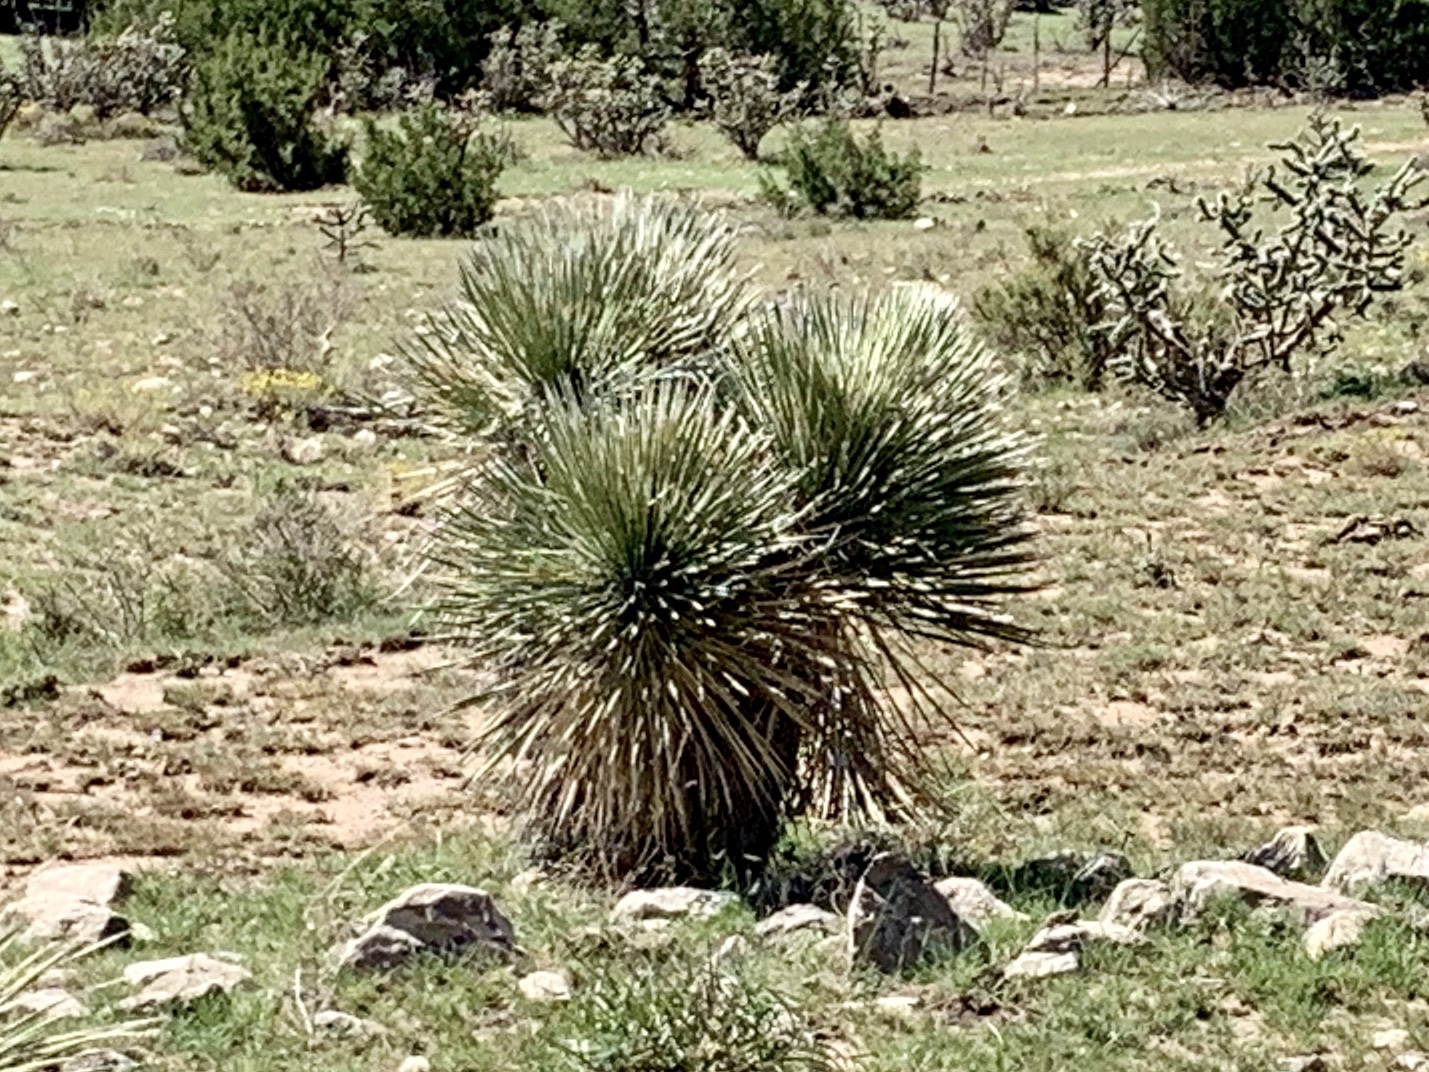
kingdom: Plantae
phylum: Tracheophyta
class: Liliopsida
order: Asparagales
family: Asparagaceae
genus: Yucca
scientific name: Yucca elata
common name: Palmella
